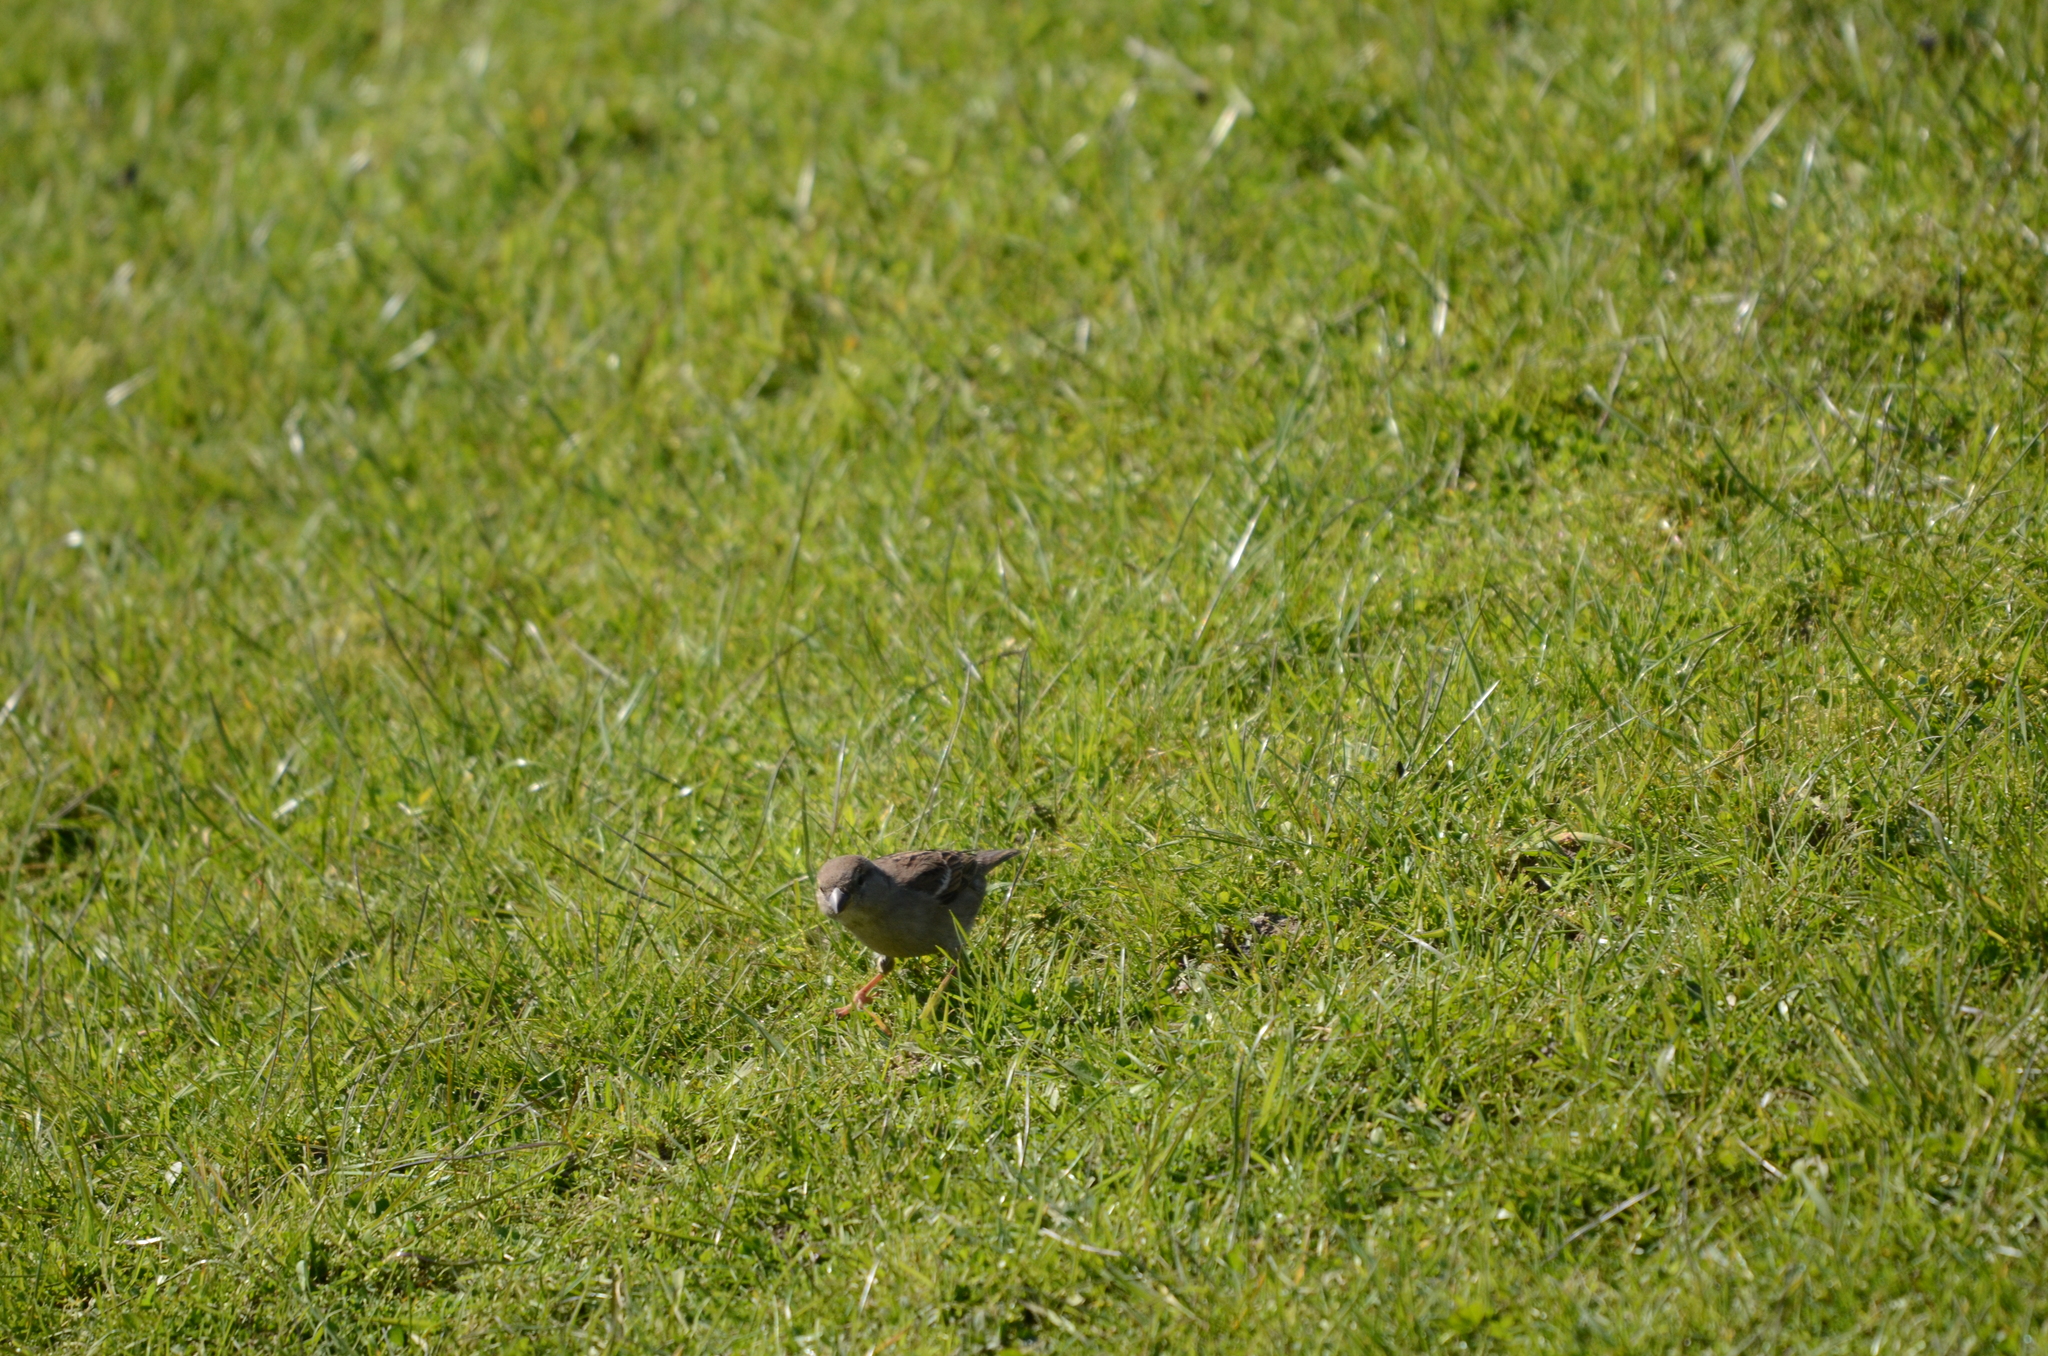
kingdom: Animalia
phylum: Chordata
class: Aves
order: Passeriformes
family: Passeridae
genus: Passer
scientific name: Passer domesticus
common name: House sparrow
